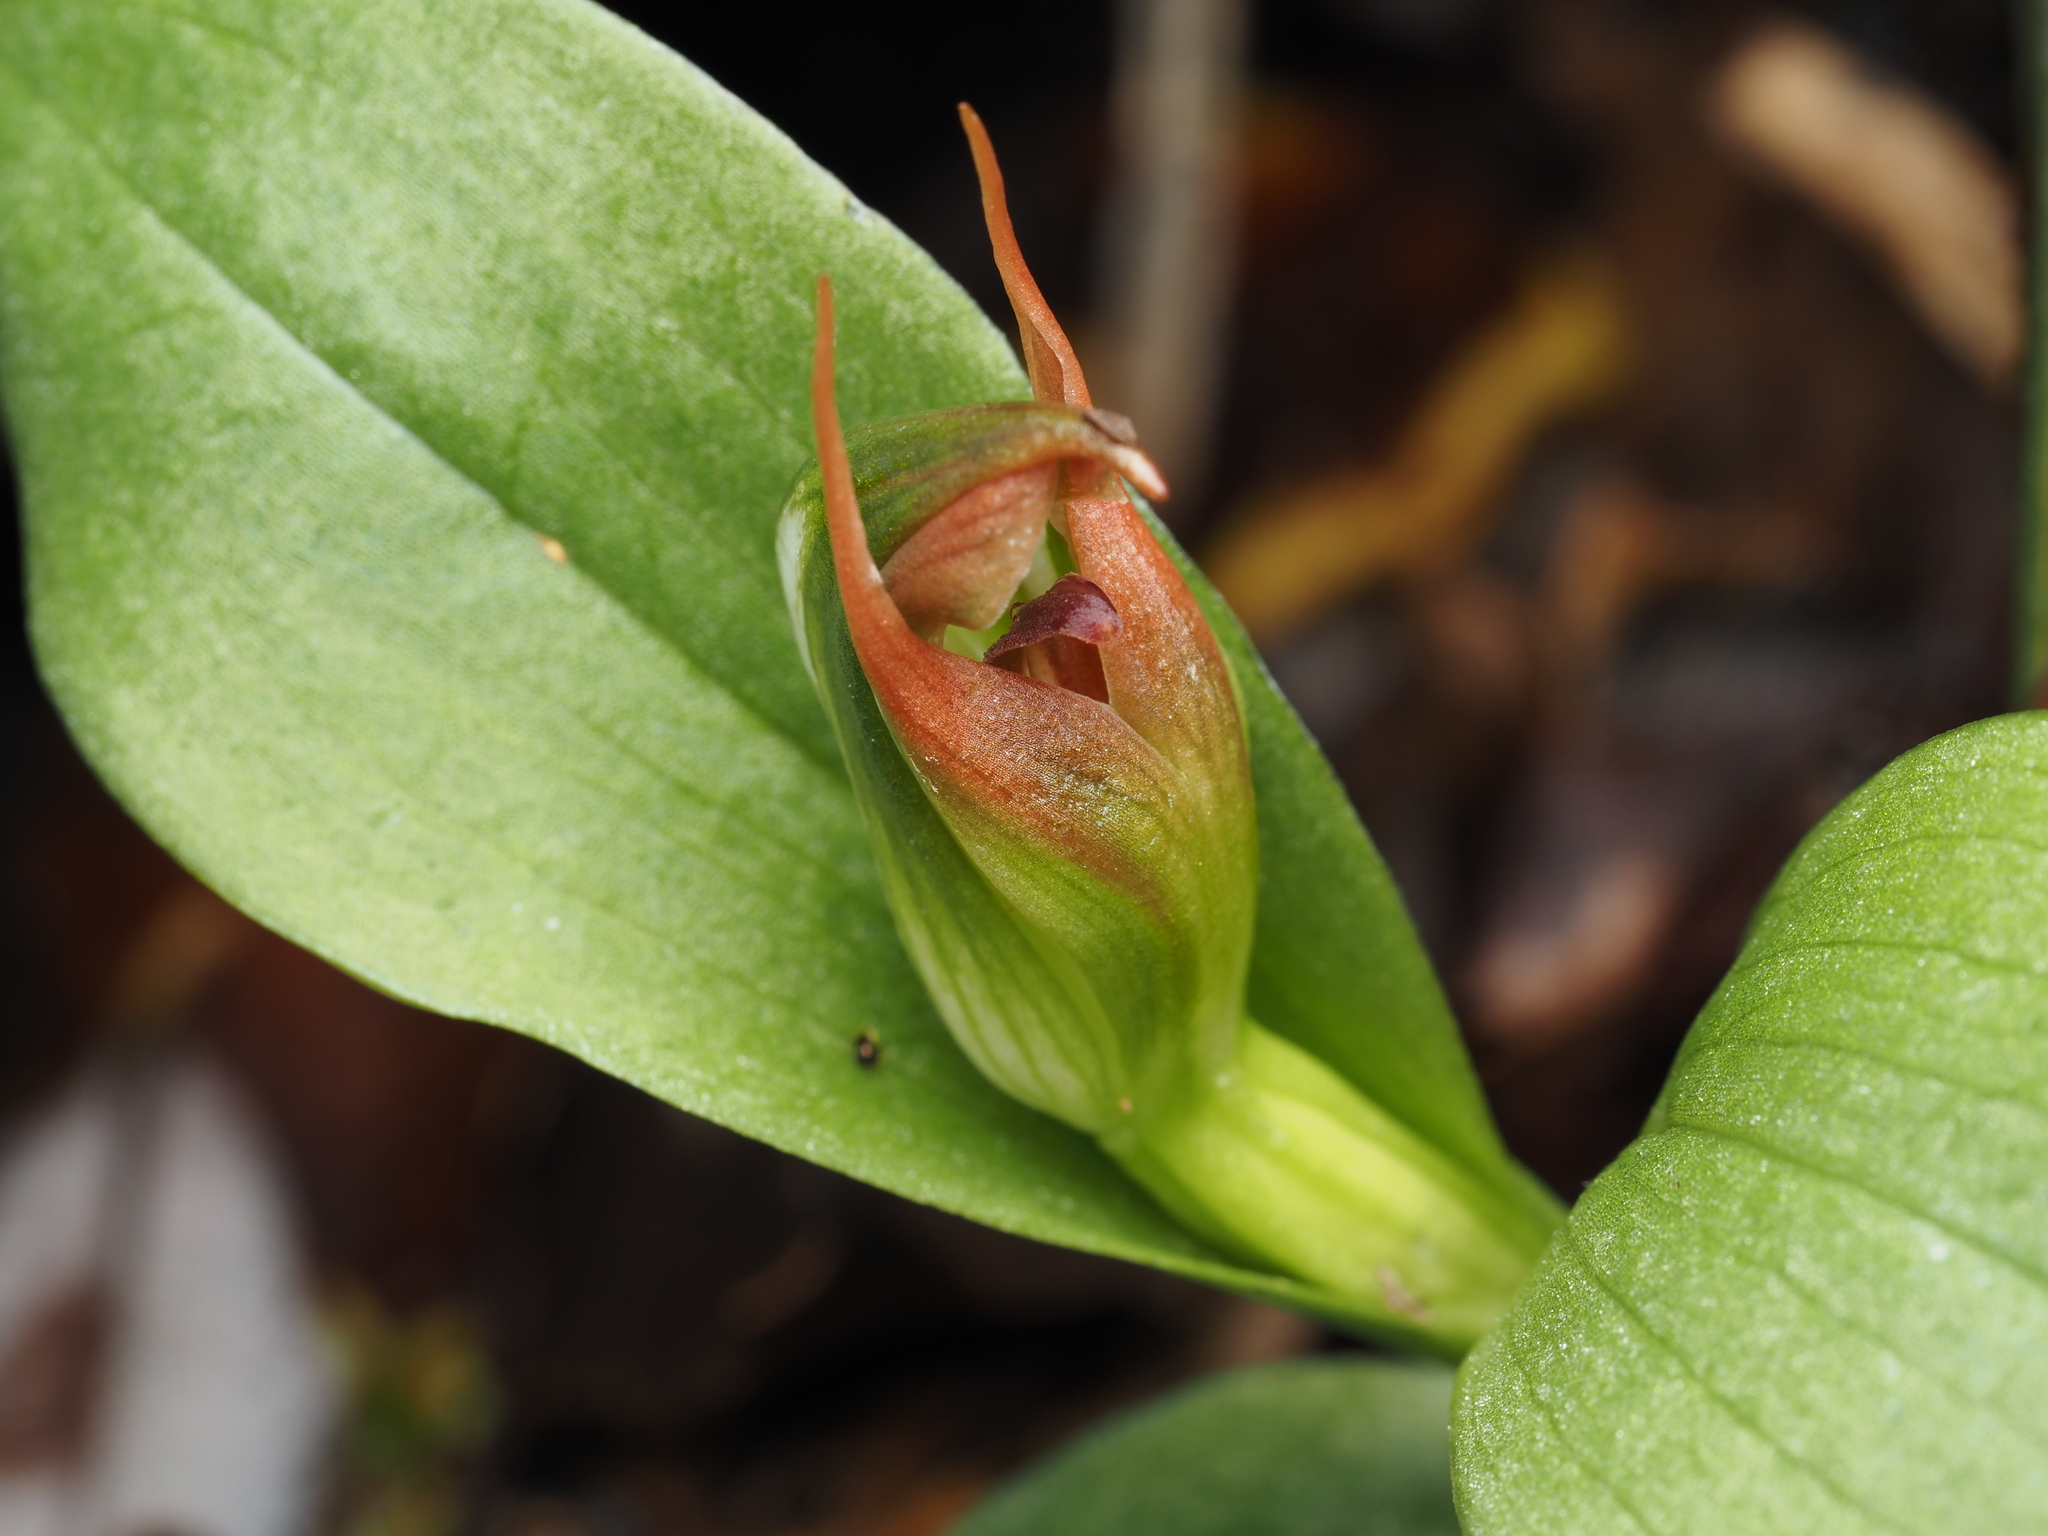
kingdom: Plantae
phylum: Tracheophyta
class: Liliopsida
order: Asparagales
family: Orchidaceae
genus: Pterostylis
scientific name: Pterostylis humilis
